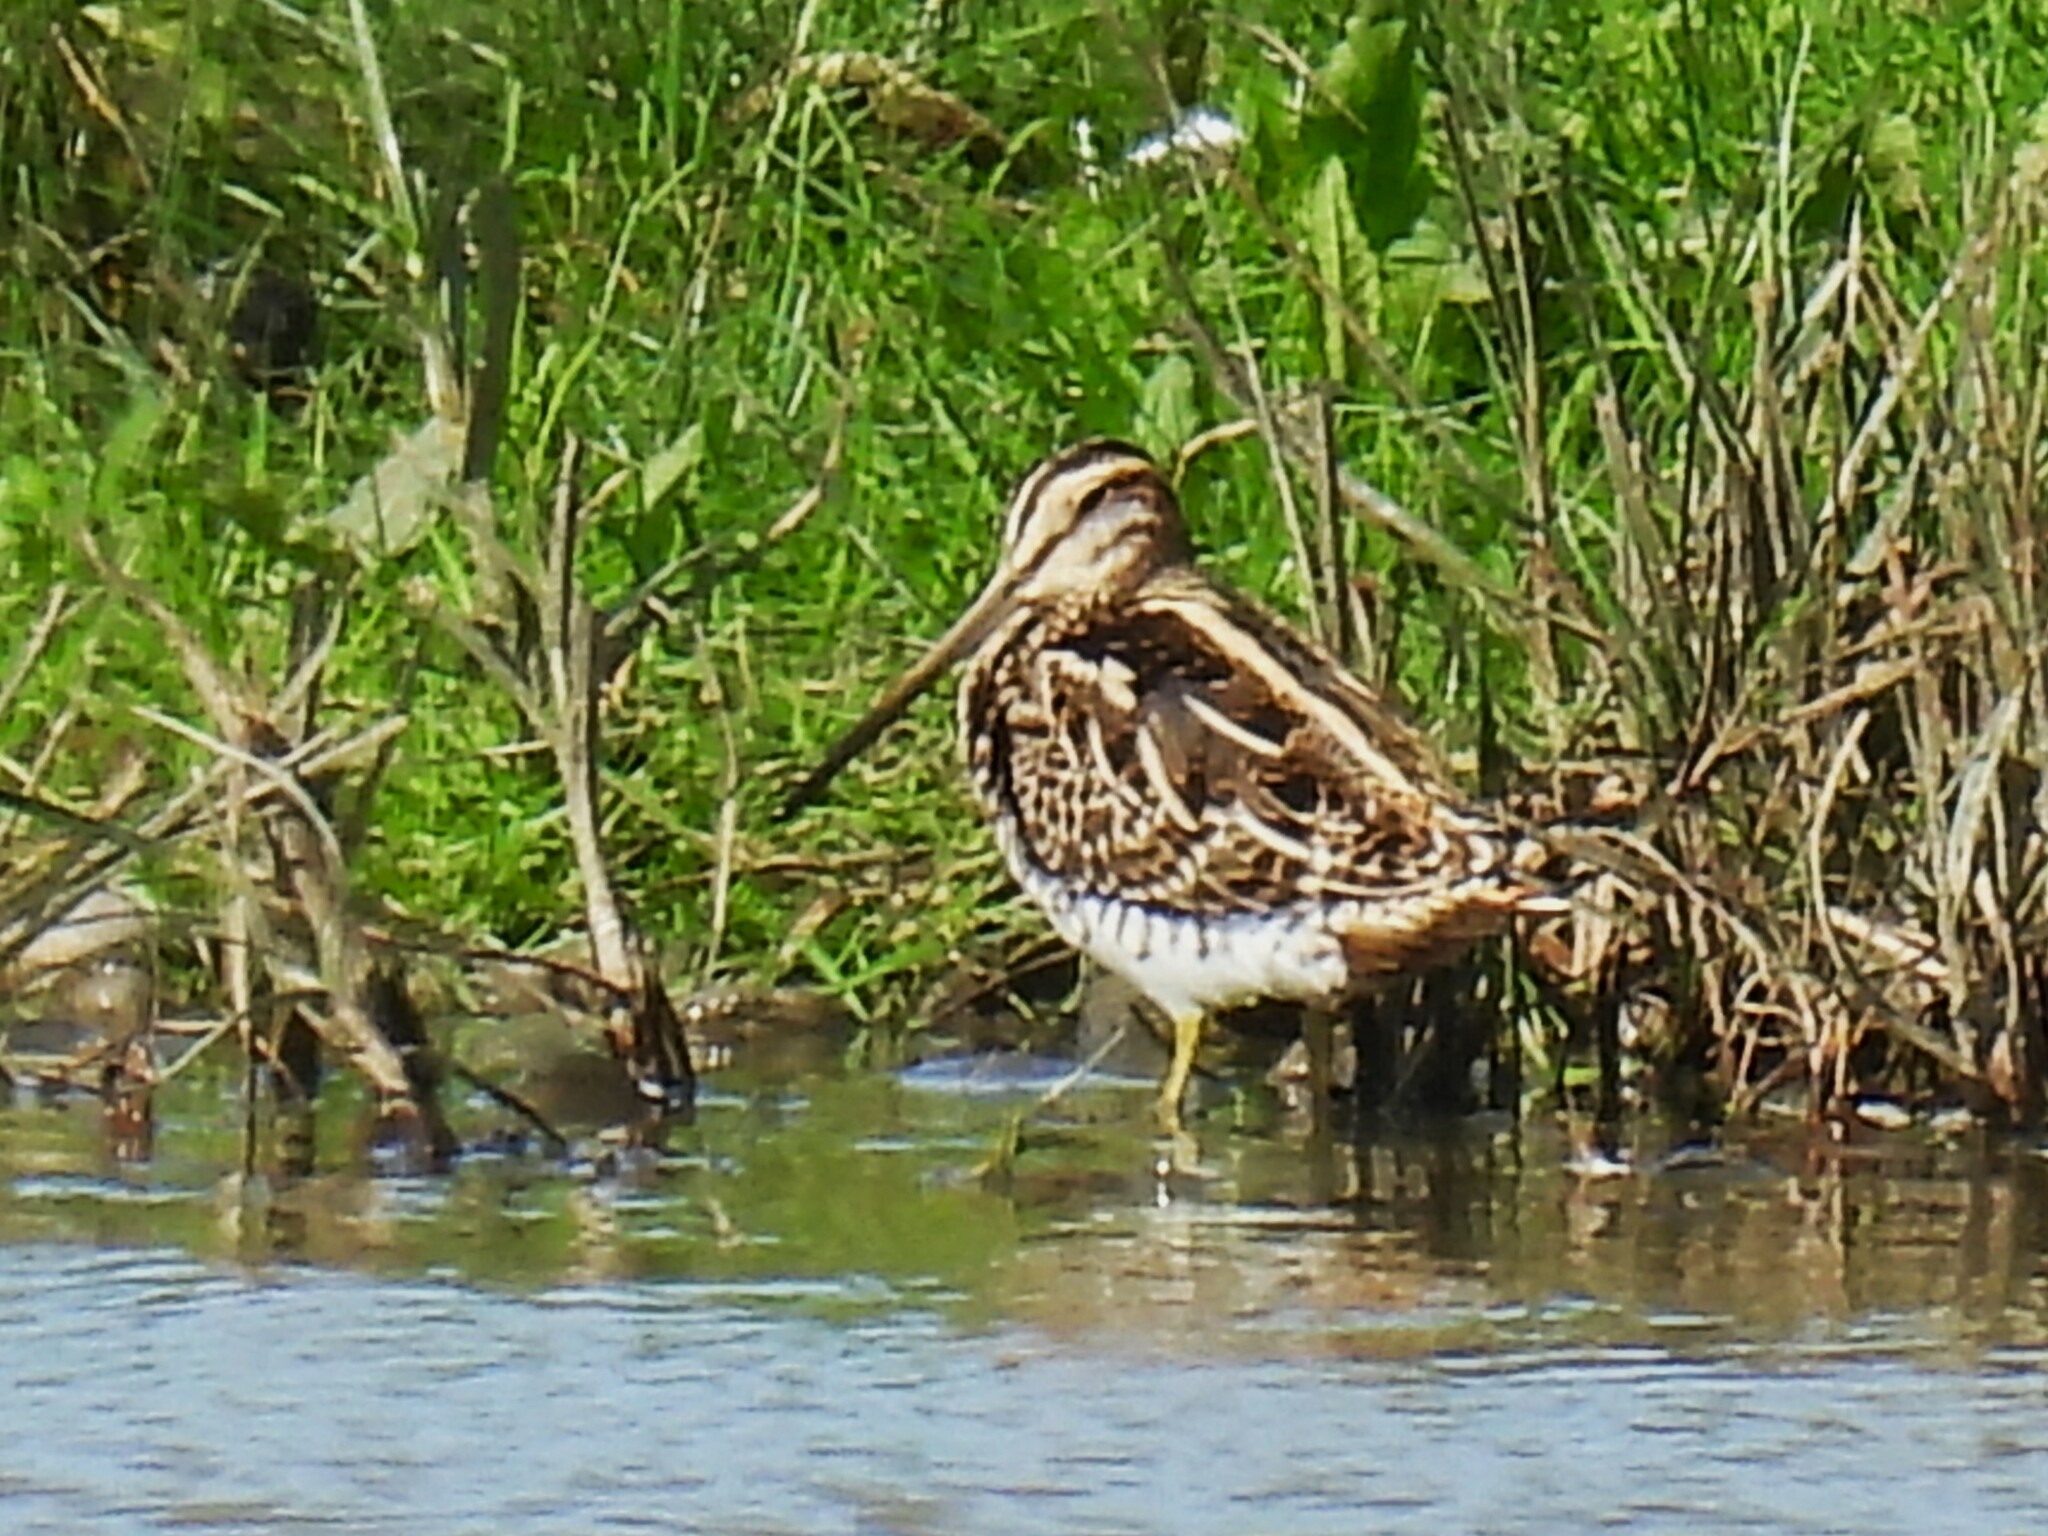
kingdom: Animalia
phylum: Chordata
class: Aves
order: Charadriiformes
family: Scolopacidae
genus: Gallinago
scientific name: Gallinago gallinago
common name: Common snipe
